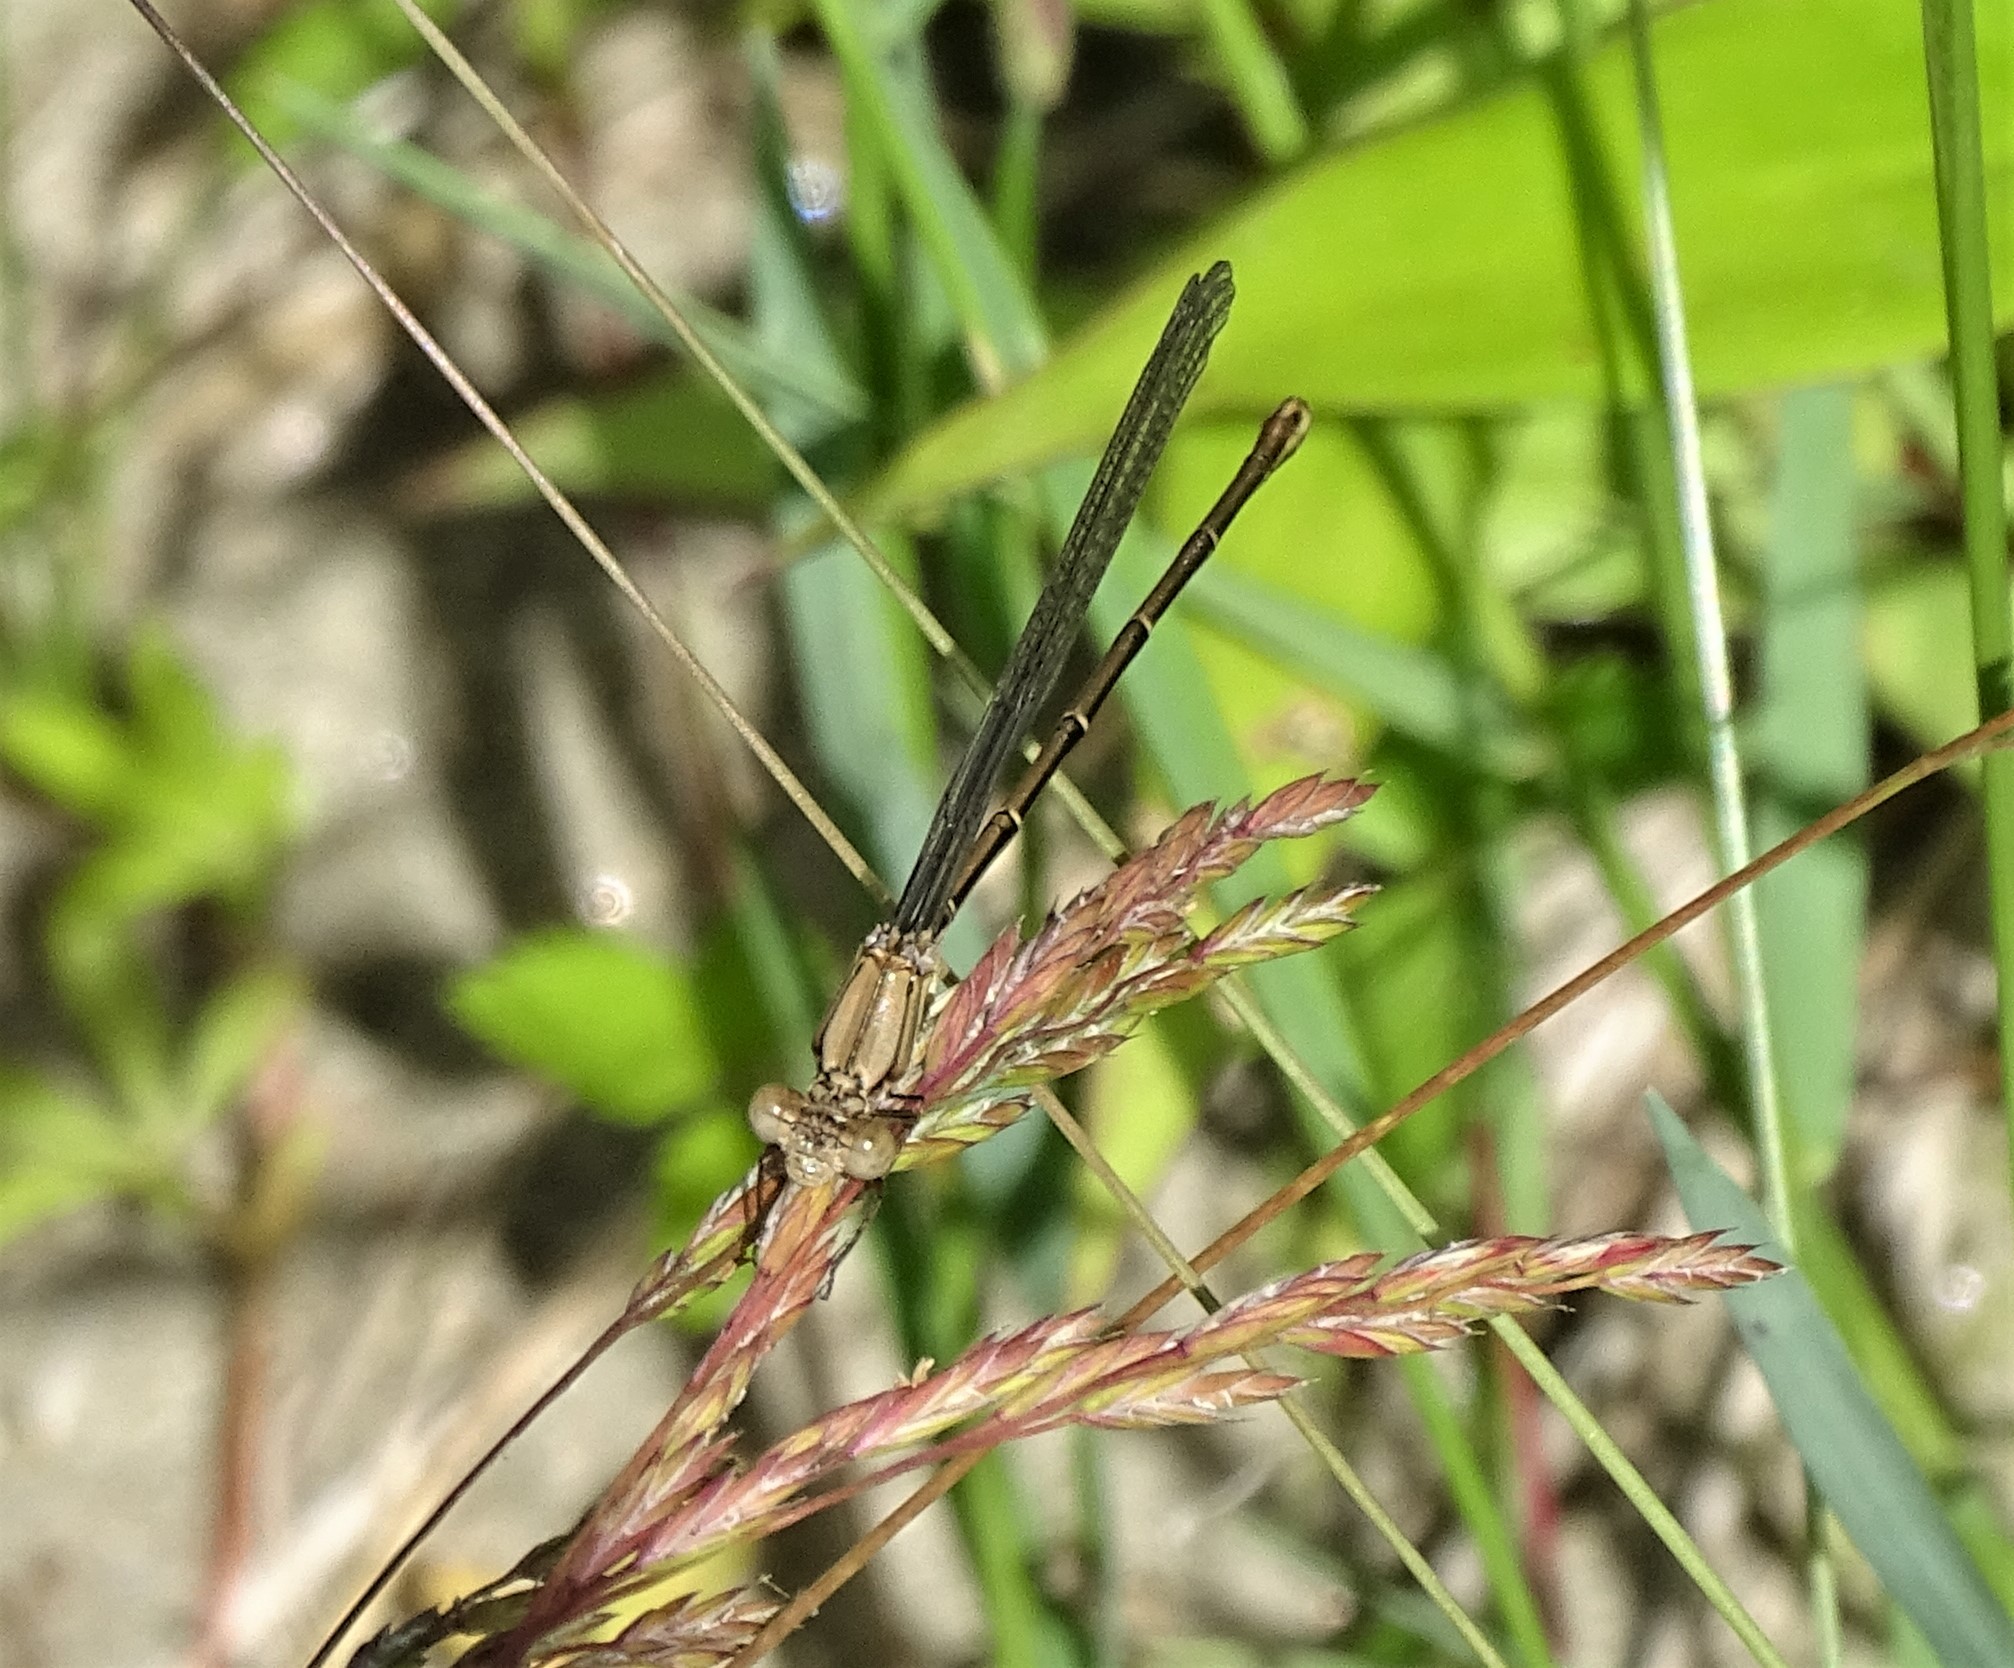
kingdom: Animalia
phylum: Arthropoda
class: Insecta
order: Odonata
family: Coenagrionidae
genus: Argia
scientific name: Argia moesta
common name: Powdered dancer
